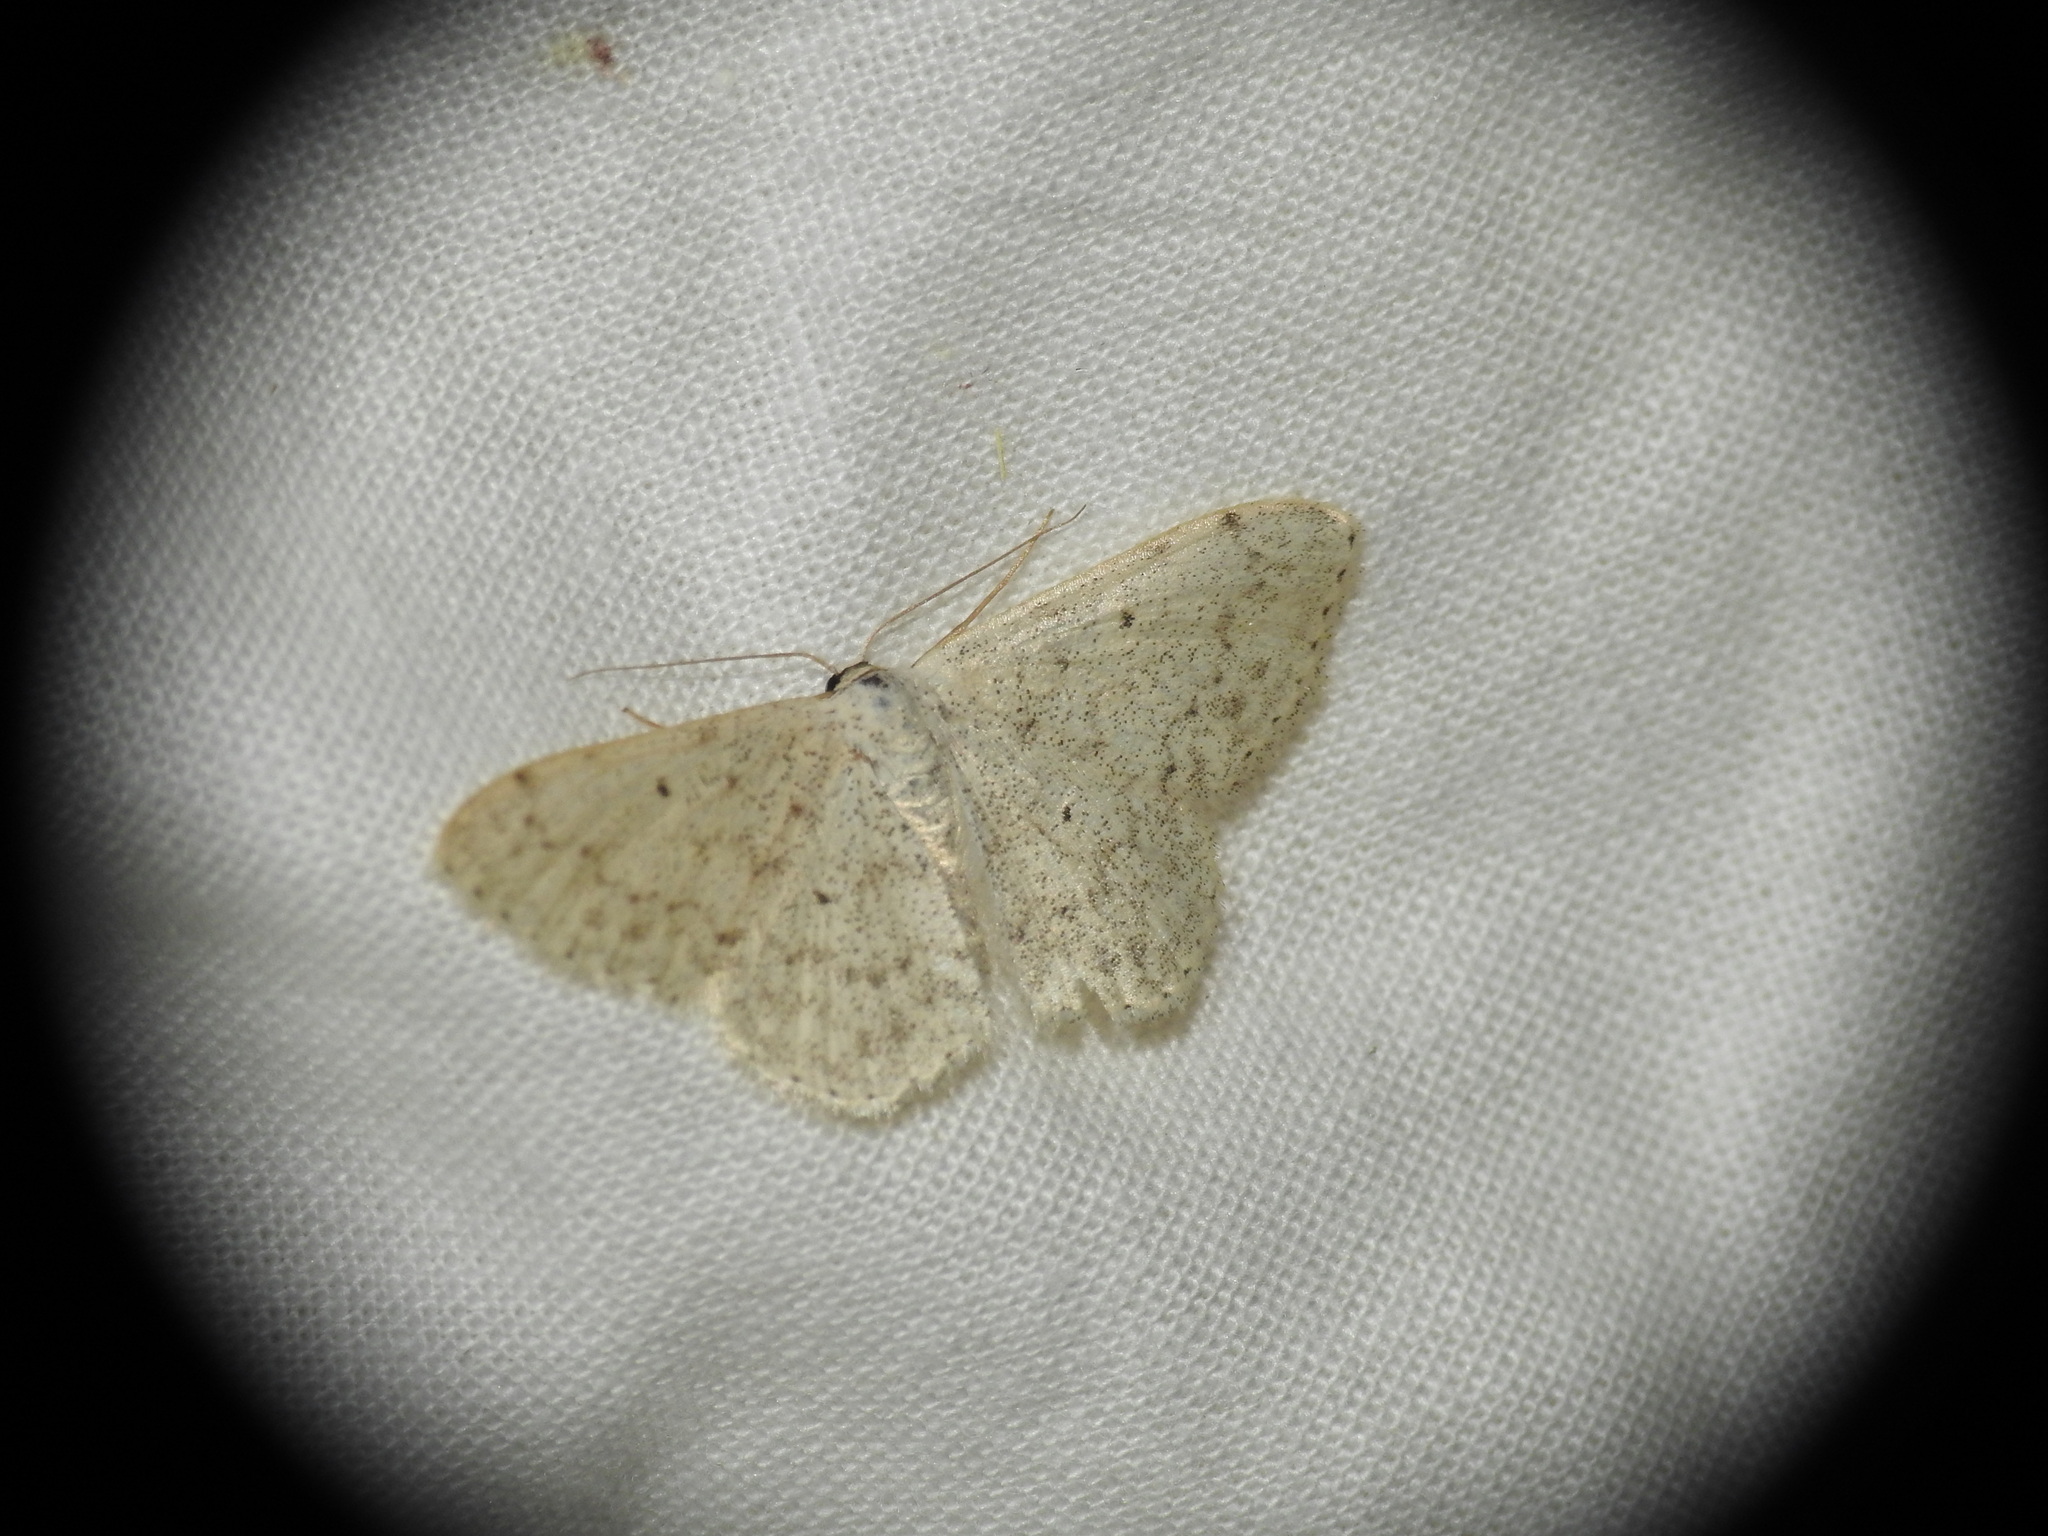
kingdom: Animalia
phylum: Arthropoda
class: Insecta
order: Lepidoptera
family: Geometridae
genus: Scopula
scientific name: Scopula marginepunctata
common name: Mullein wave
